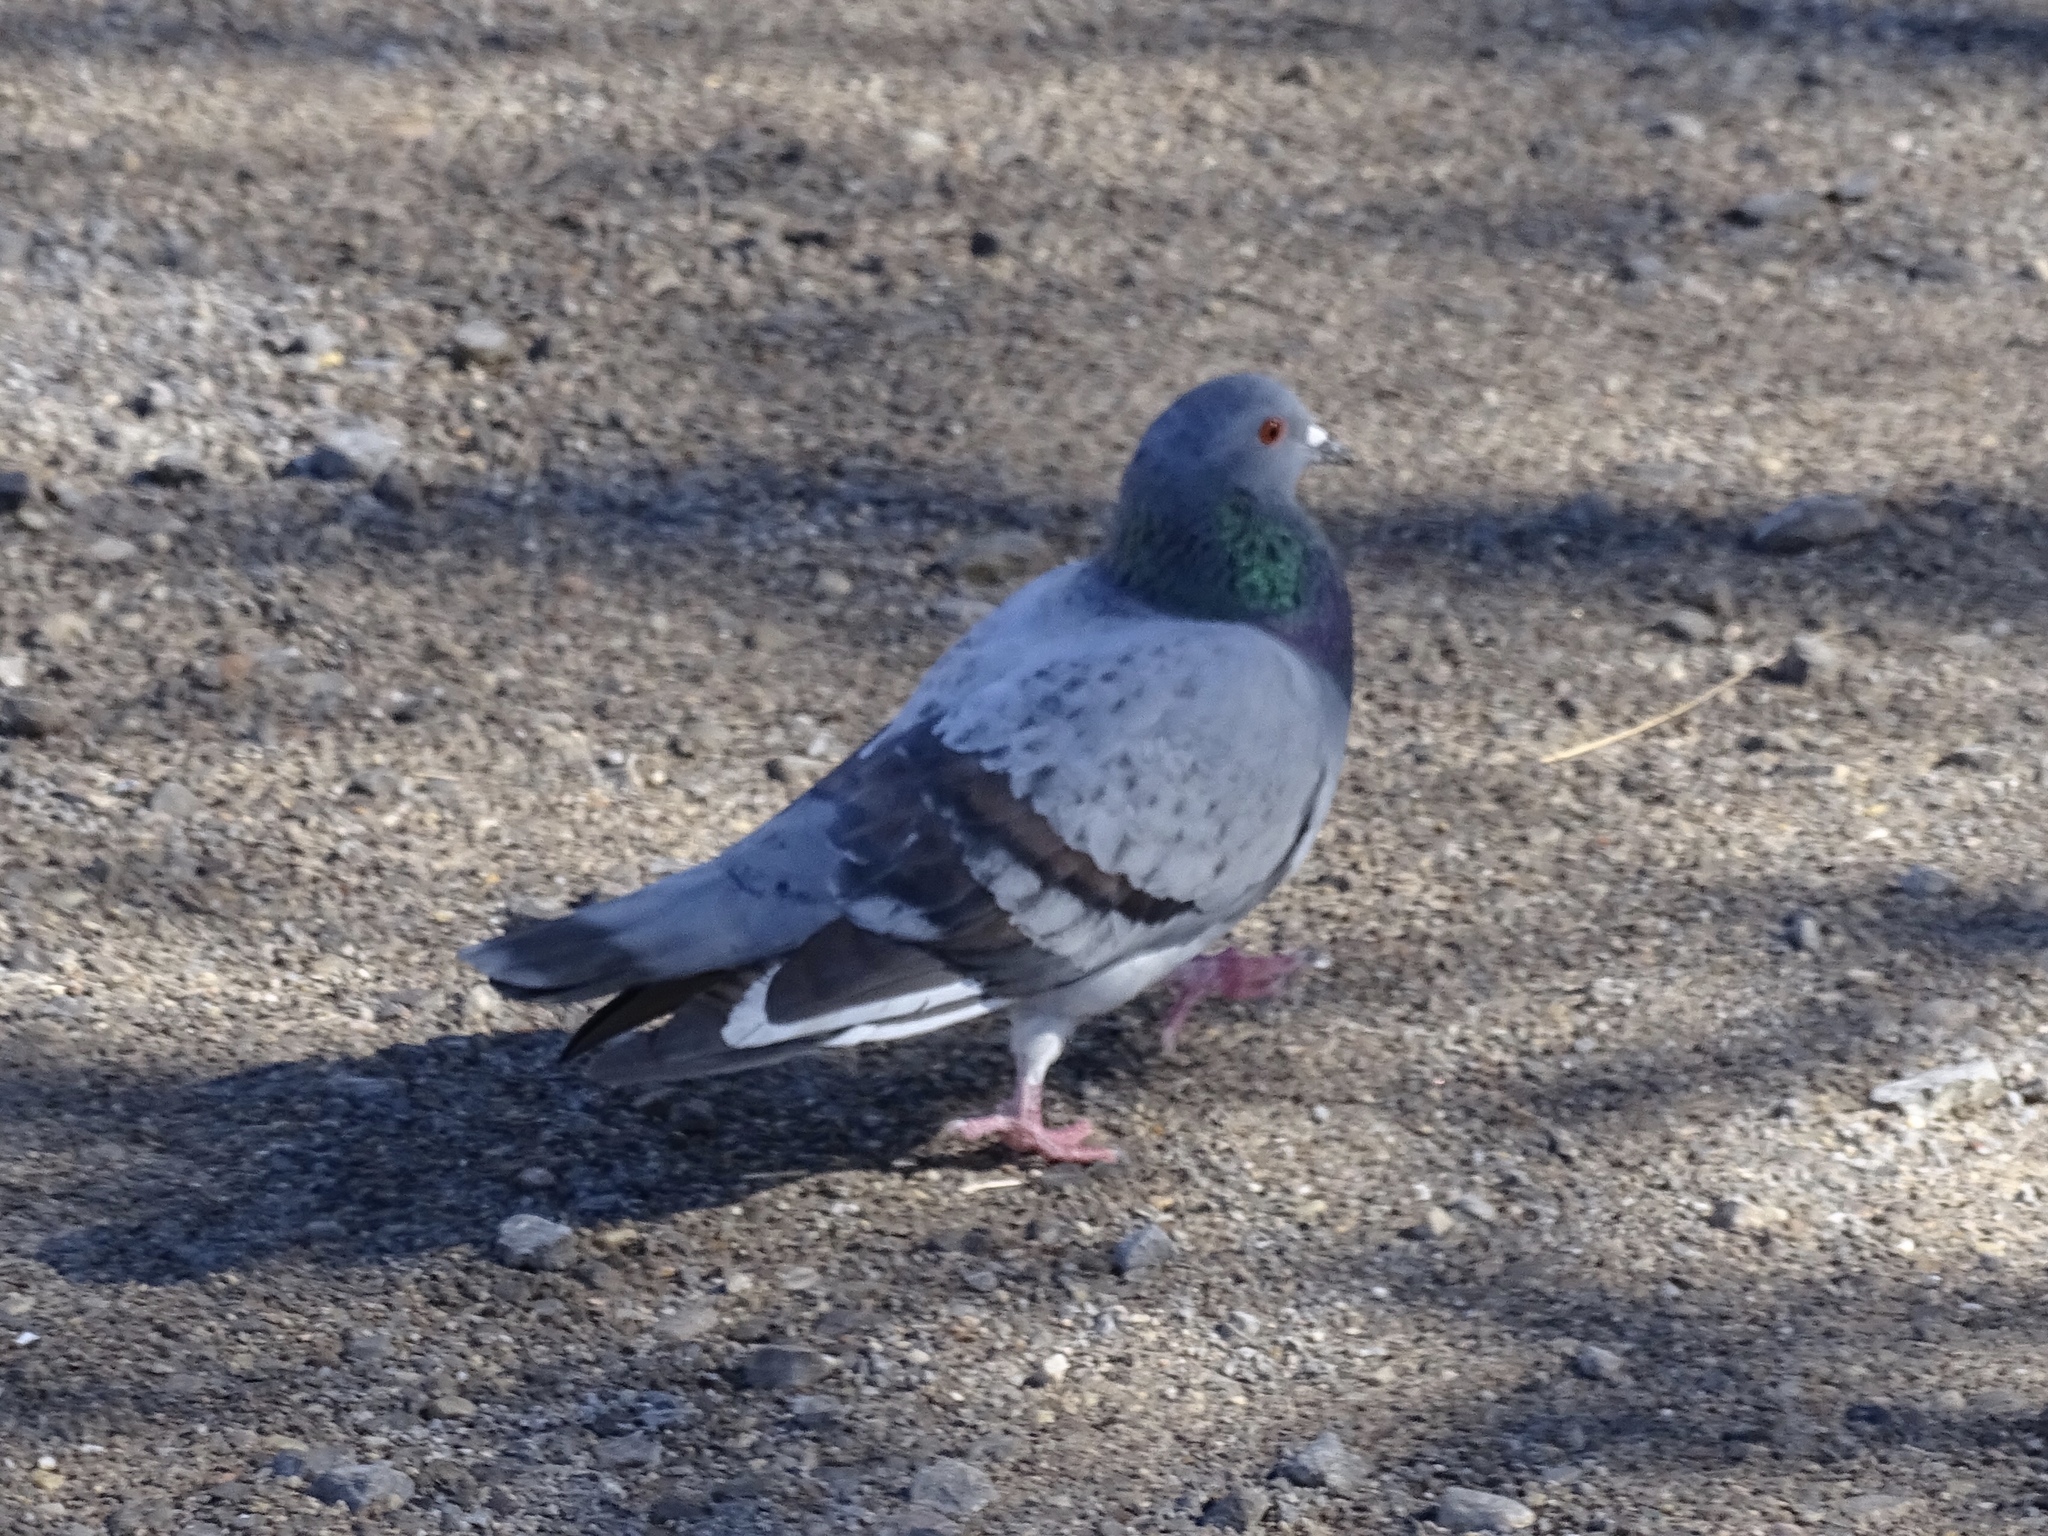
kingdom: Animalia
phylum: Chordata
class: Aves
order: Columbiformes
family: Columbidae
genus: Columba
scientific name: Columba livia
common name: Rock pigeon
